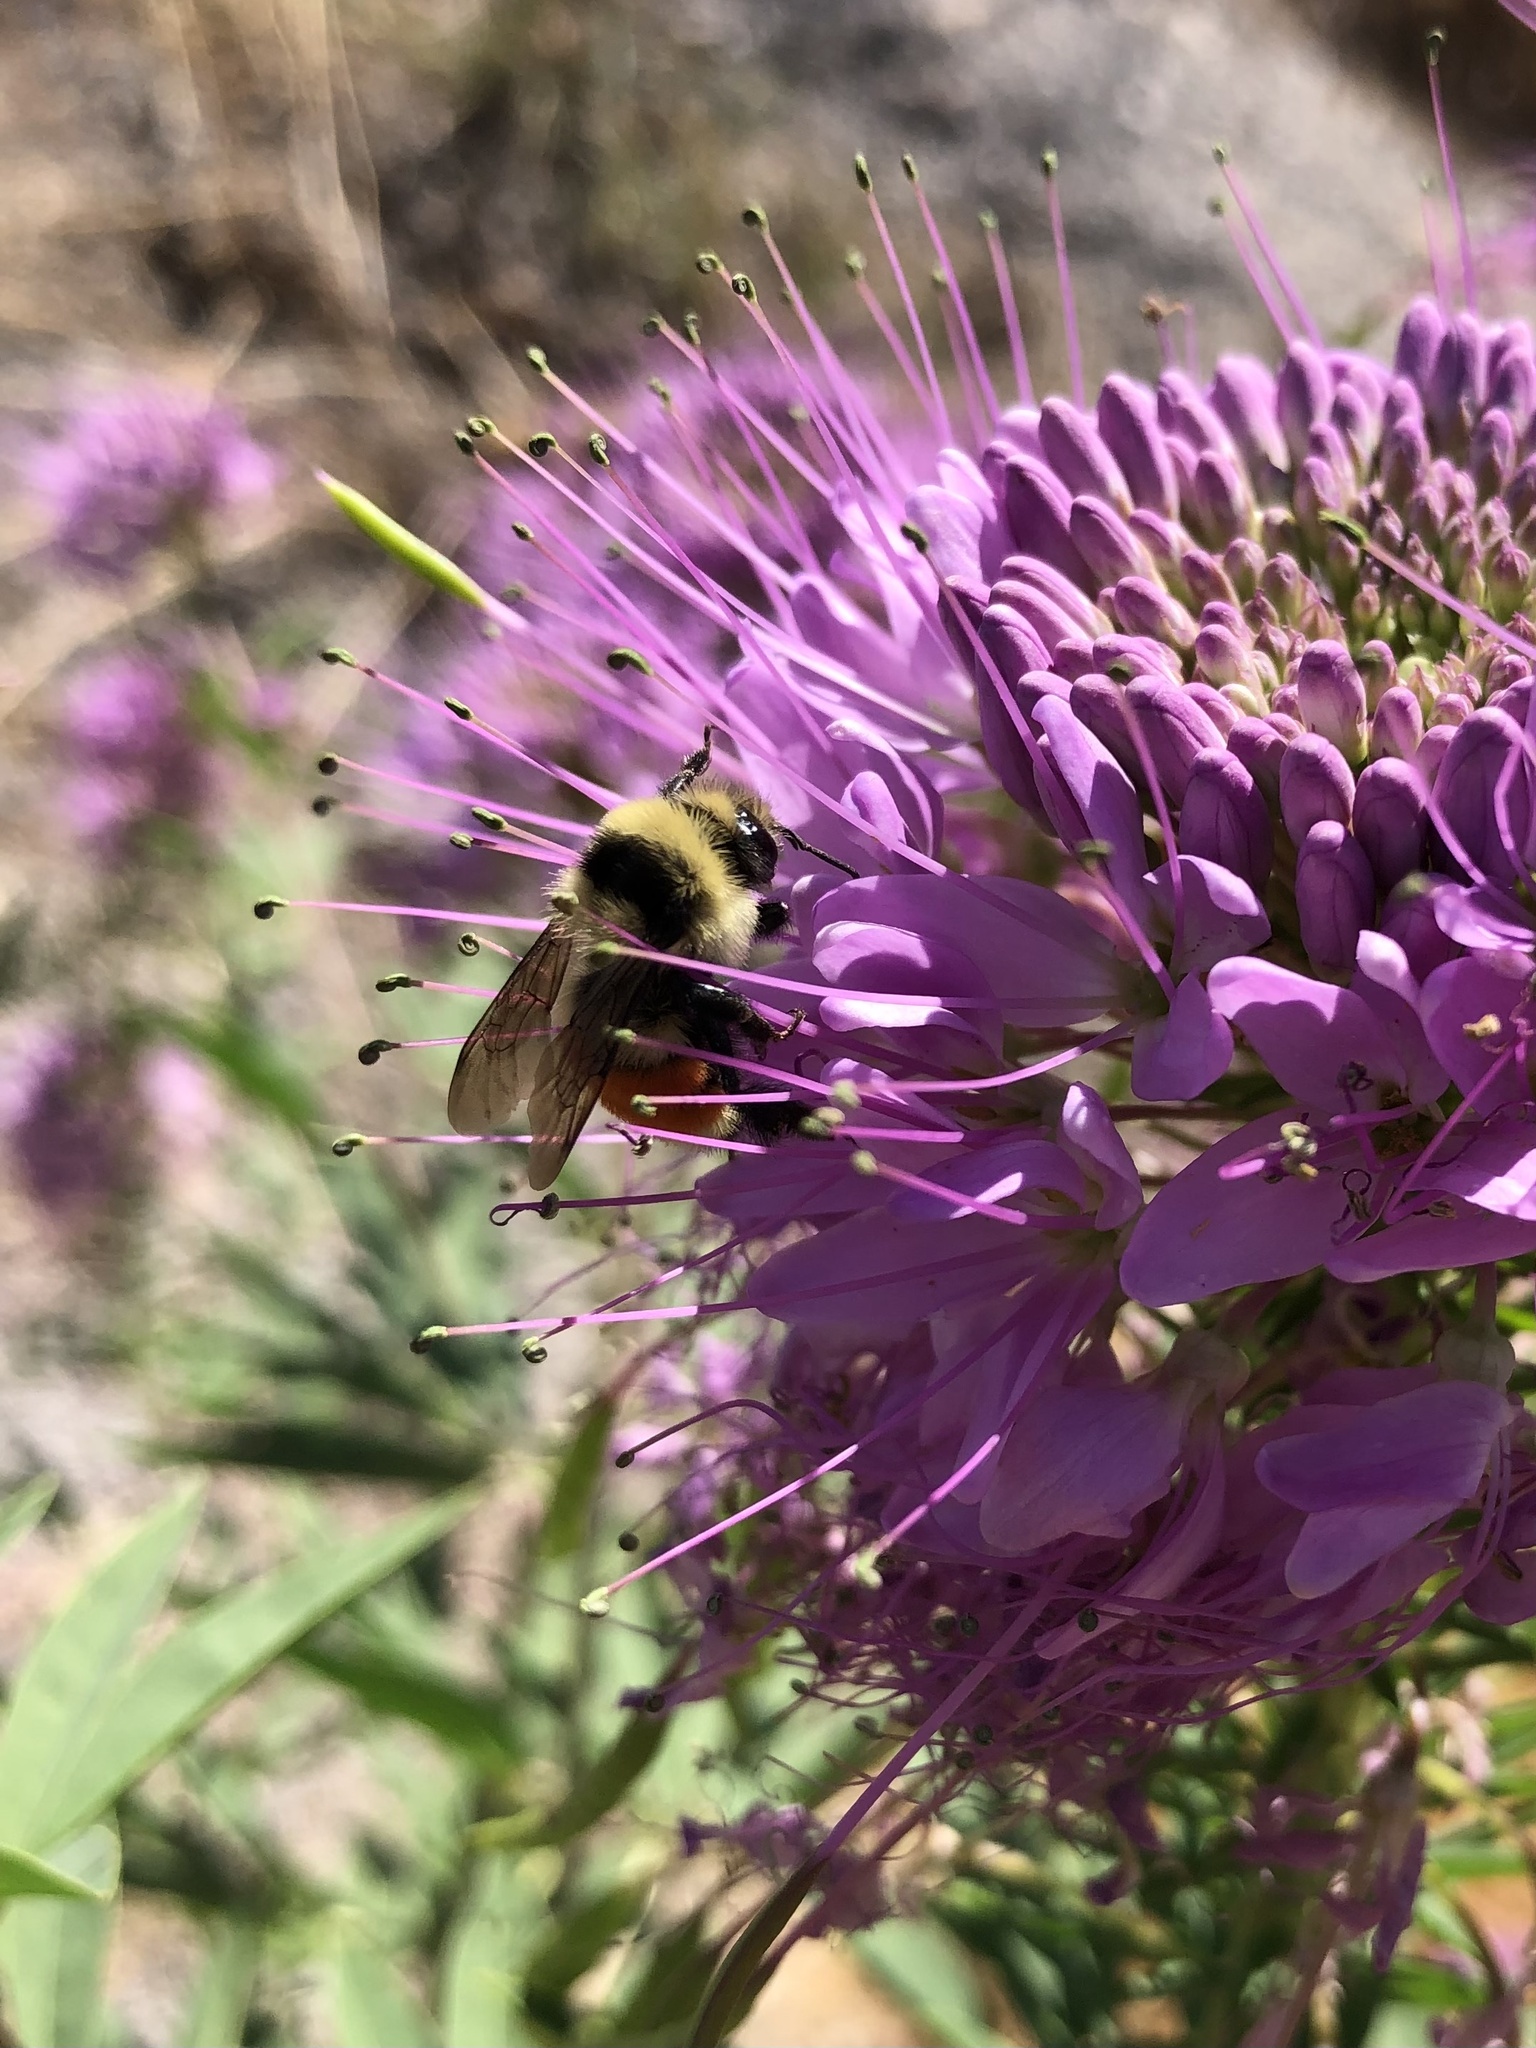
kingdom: Animalia
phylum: Arthropoda
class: Insecta
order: Hymenoptera
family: Apidae
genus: Bombus
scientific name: Bombus huntii
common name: Hunt bumble bee
